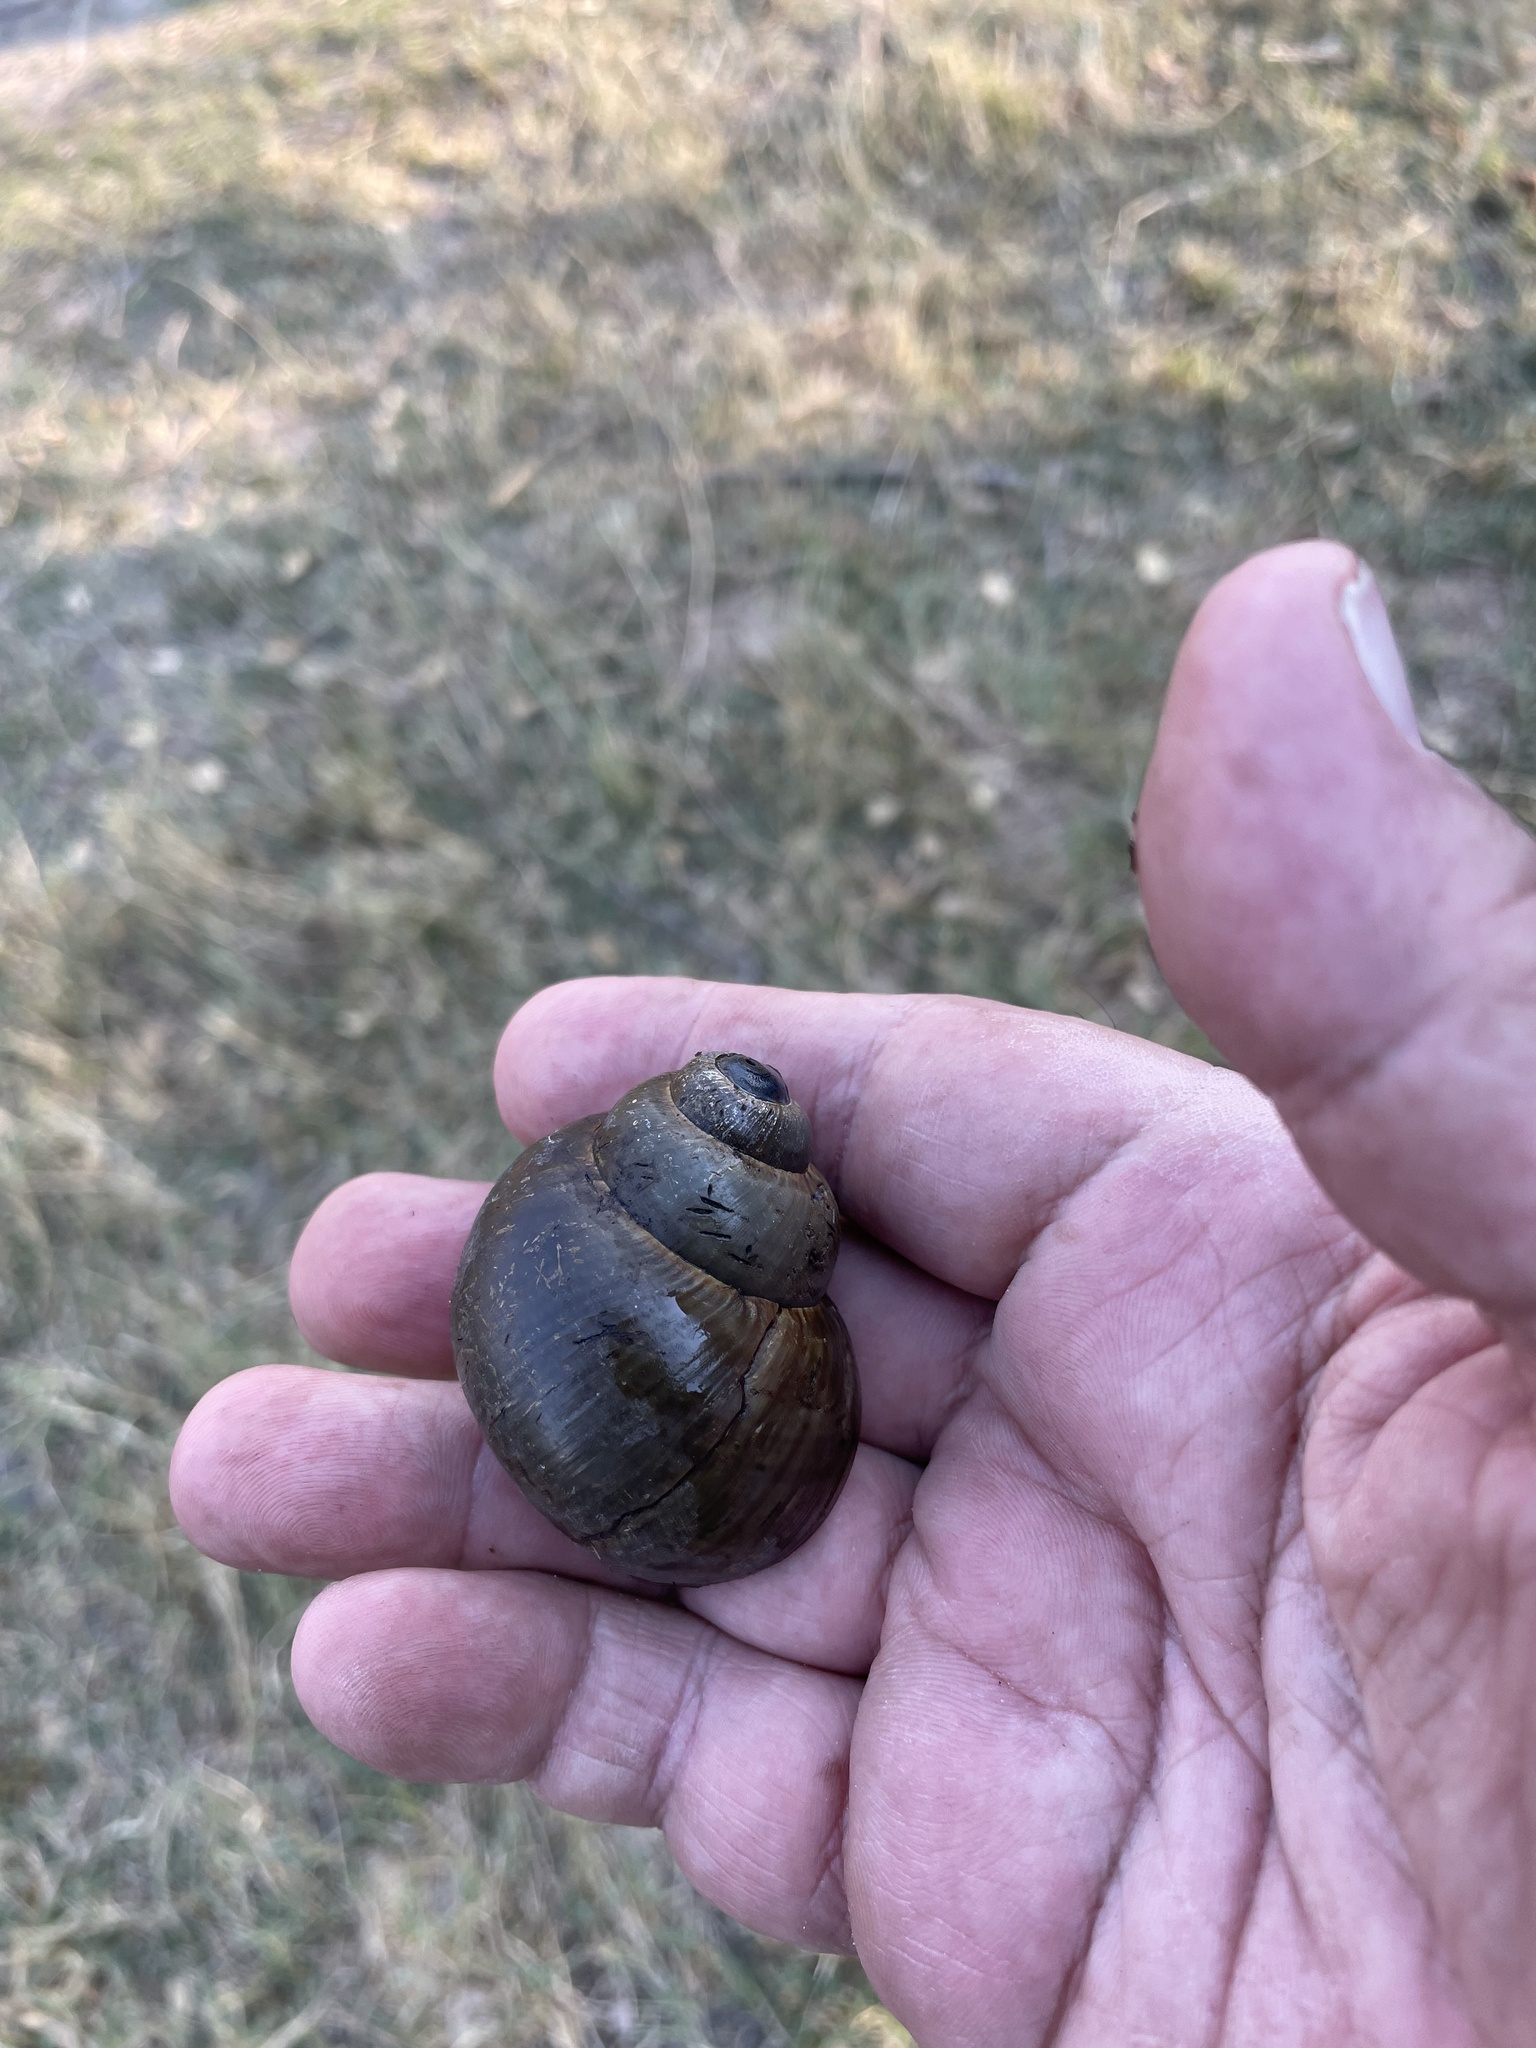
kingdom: Animalia
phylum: Mollusca
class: Gastropoda
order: Architaenioglossa
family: Ampullariidae
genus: Lanistes
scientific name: Lanistes ovum
